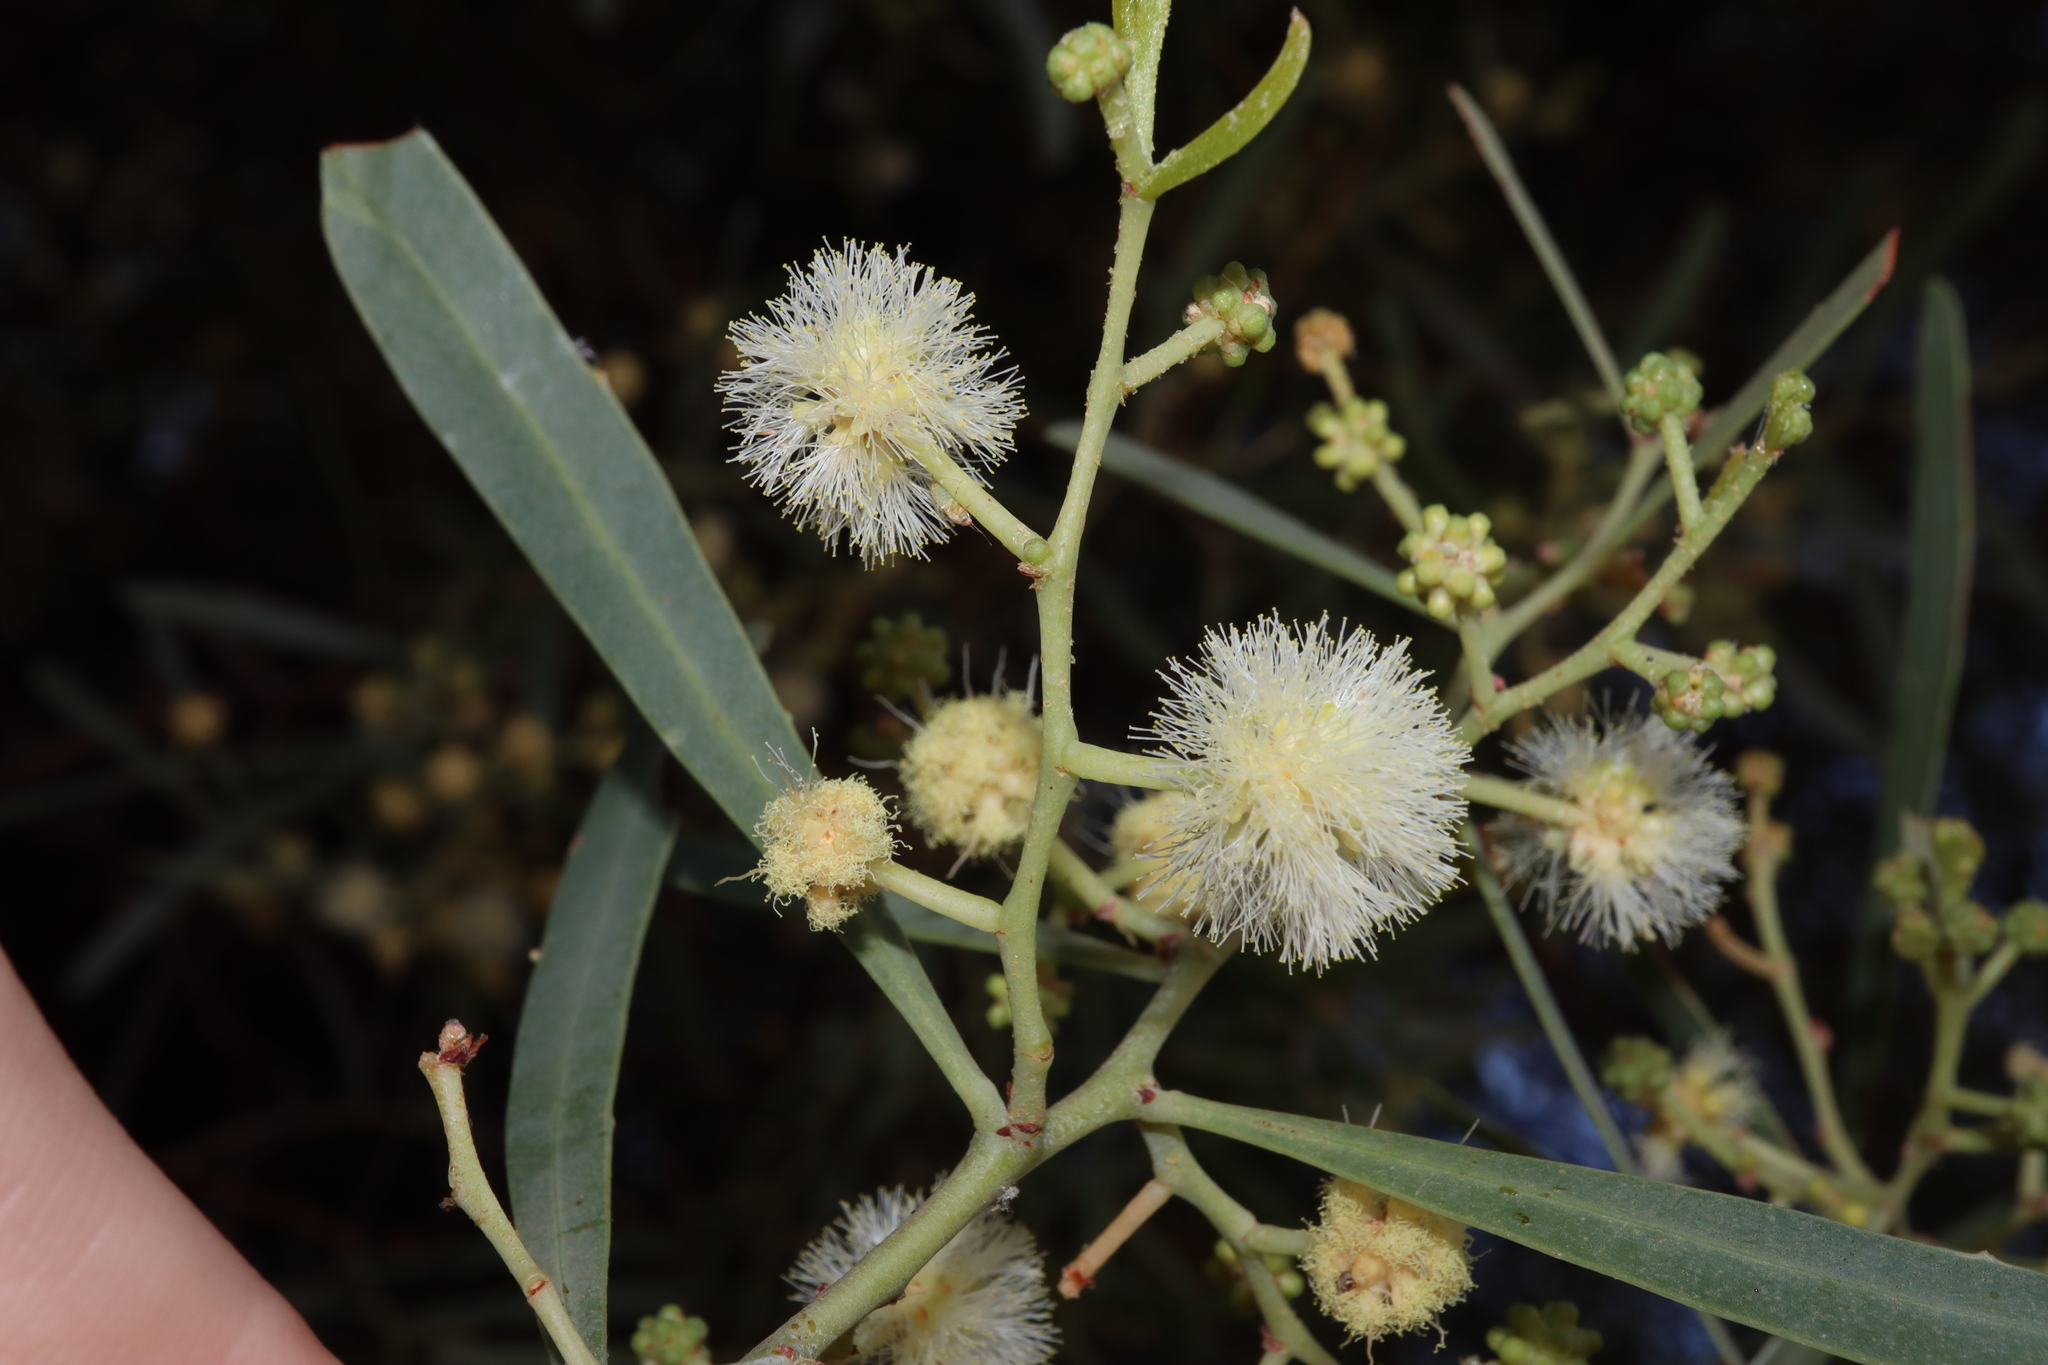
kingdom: Plantae
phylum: Tracheophyta
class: Magnoliopsida
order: Fabales
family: Fabaceae
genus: Acacia
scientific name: Acacia salicina
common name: Broughton willow wattle
